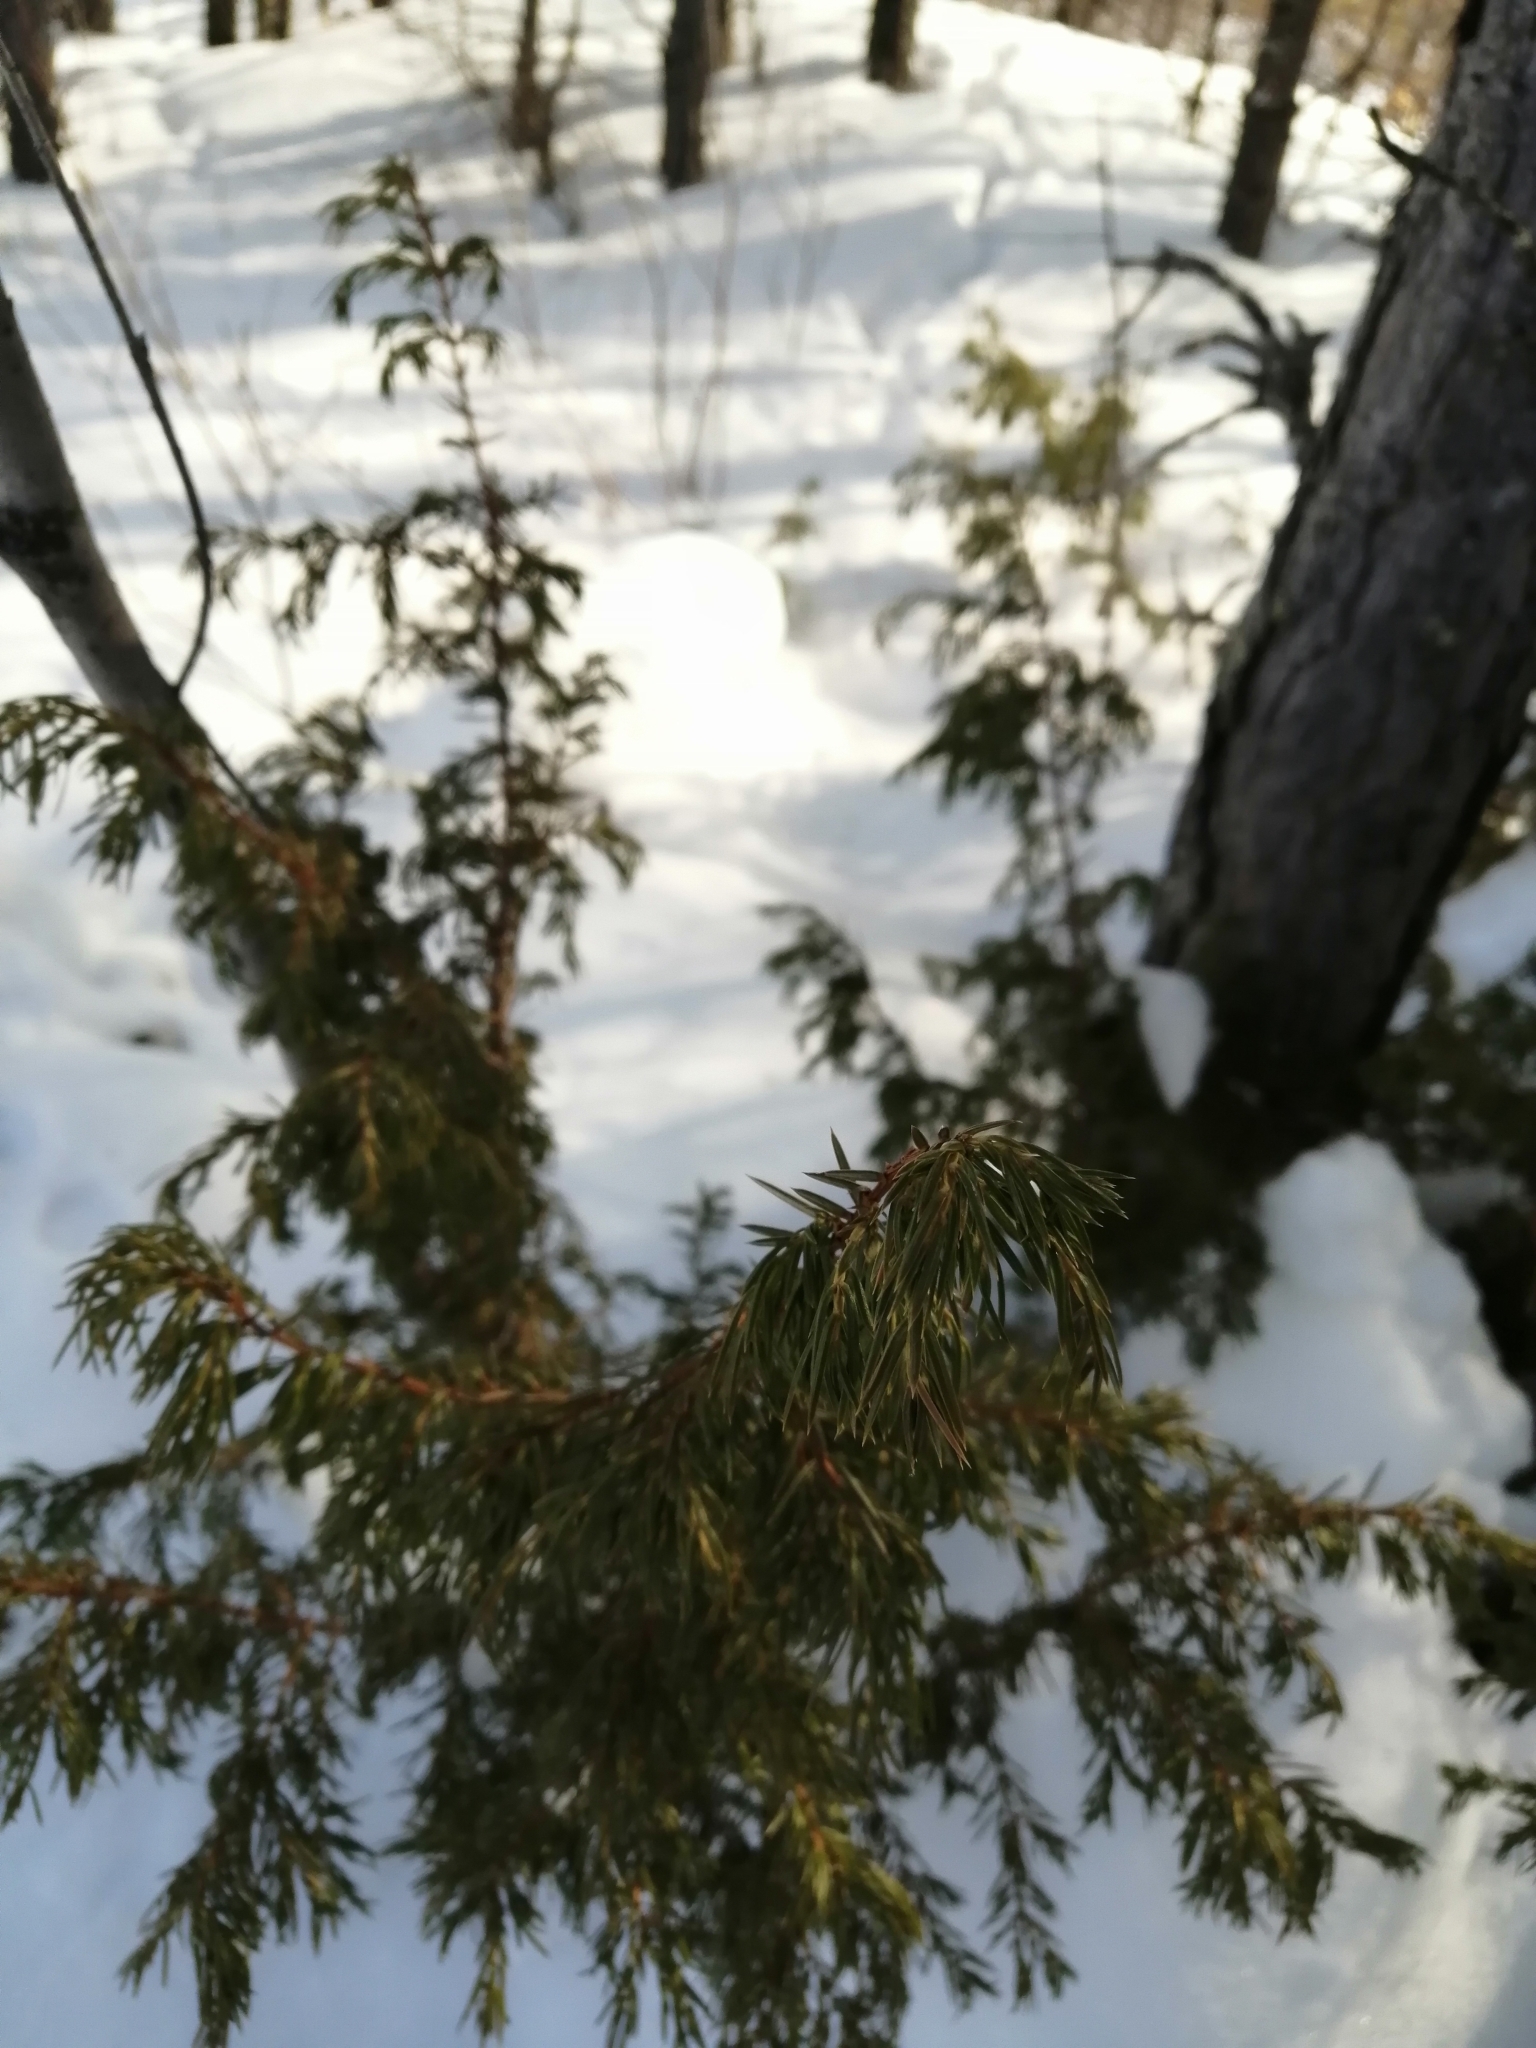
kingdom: Plantae
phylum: Tracheophyta
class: Pinopsida
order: Pinales
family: Cupressaceae
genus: Juniperus
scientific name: Juniperus communis
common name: Common juniper
